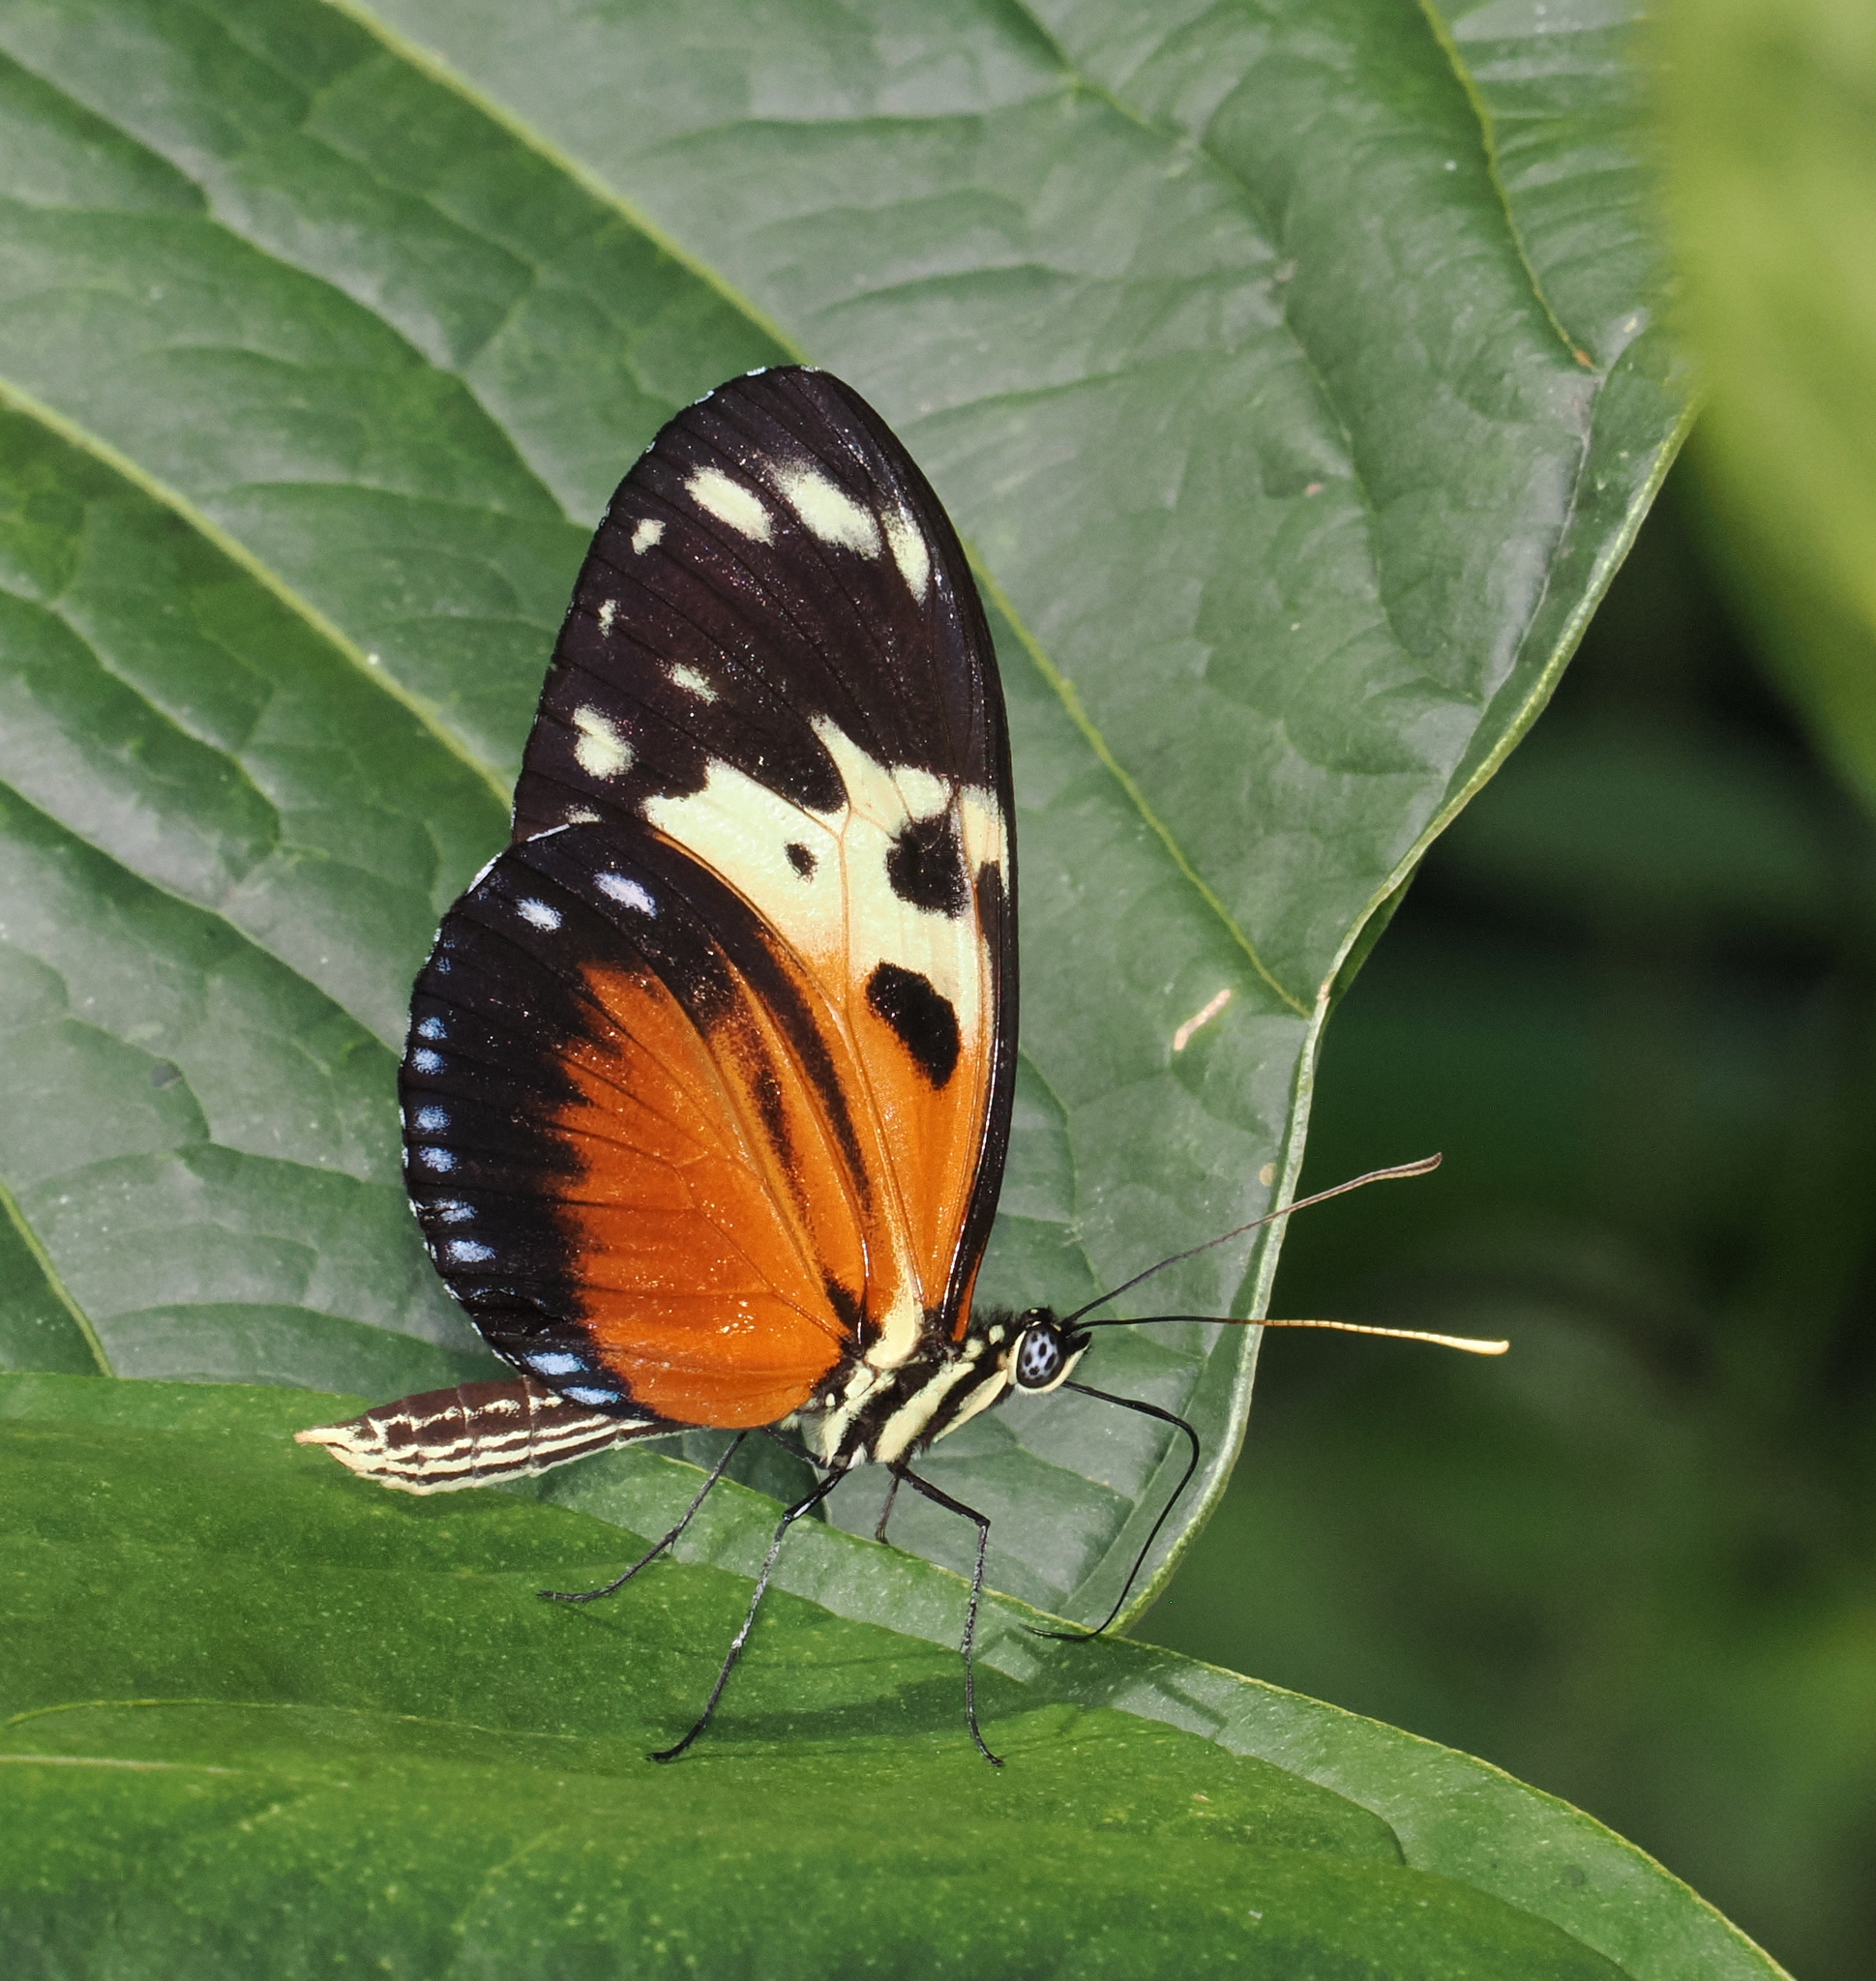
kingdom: Animalia
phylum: Arthropoda
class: Insecta
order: Lepidoptera
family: Nymphalidae
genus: Heliconius
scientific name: Heliconius hecale
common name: Tiger longwing
